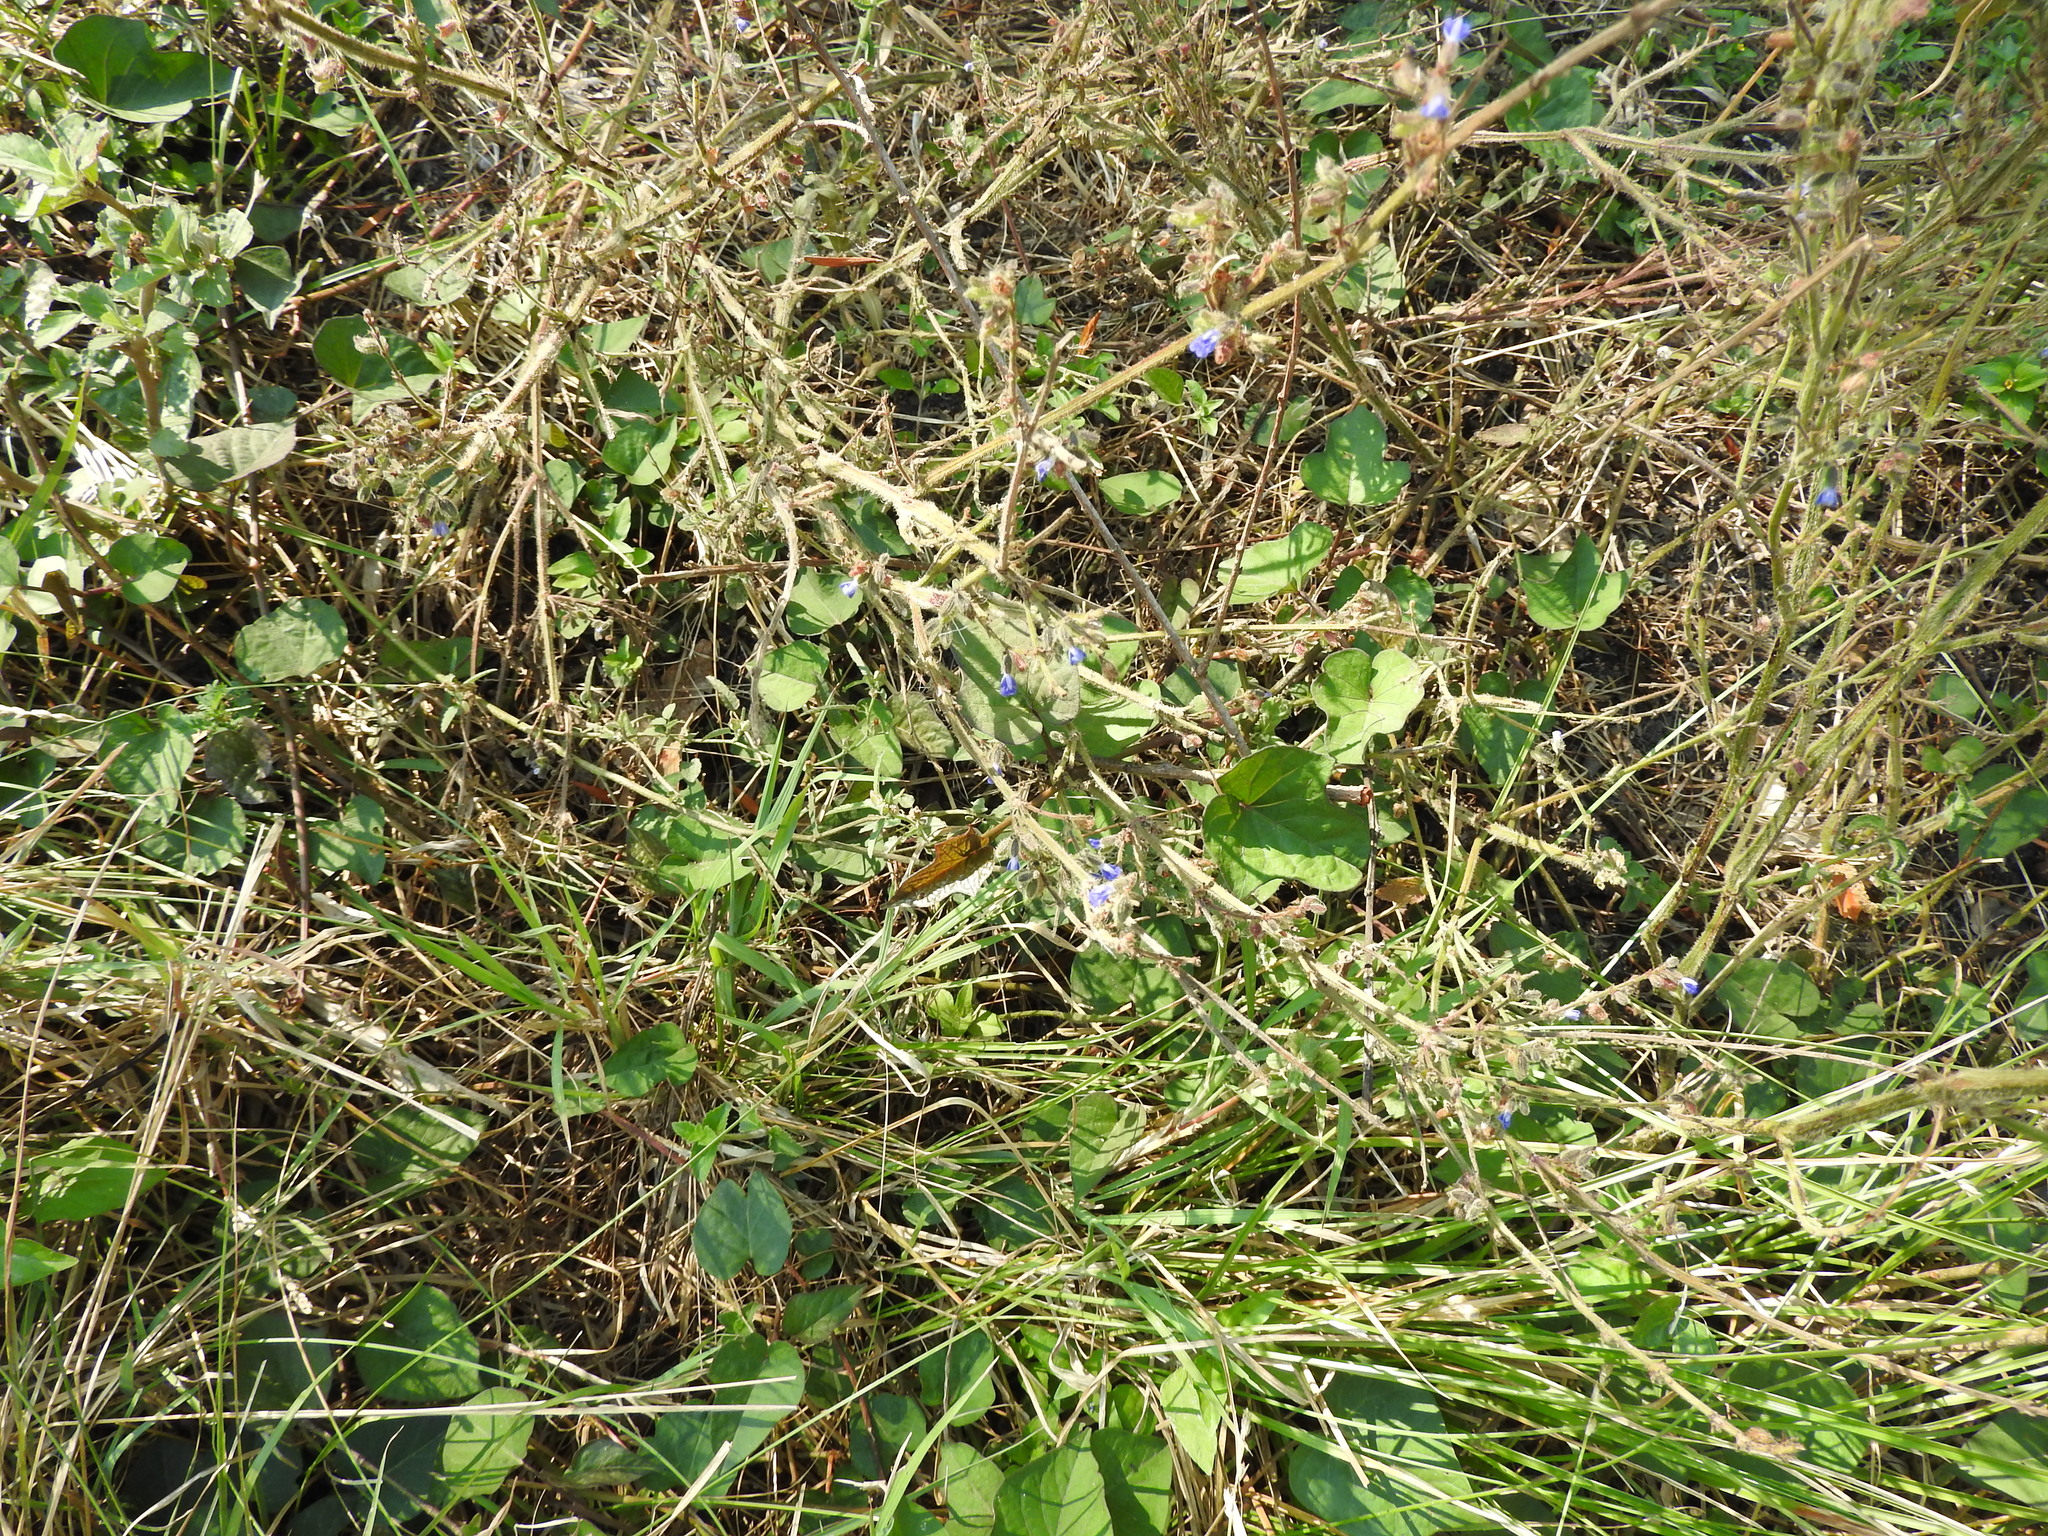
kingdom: Plantae
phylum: Tracheophyta
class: Magnoliopsida
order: Lamiales
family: Lamiaceae
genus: Salvia
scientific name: Salvia misella
